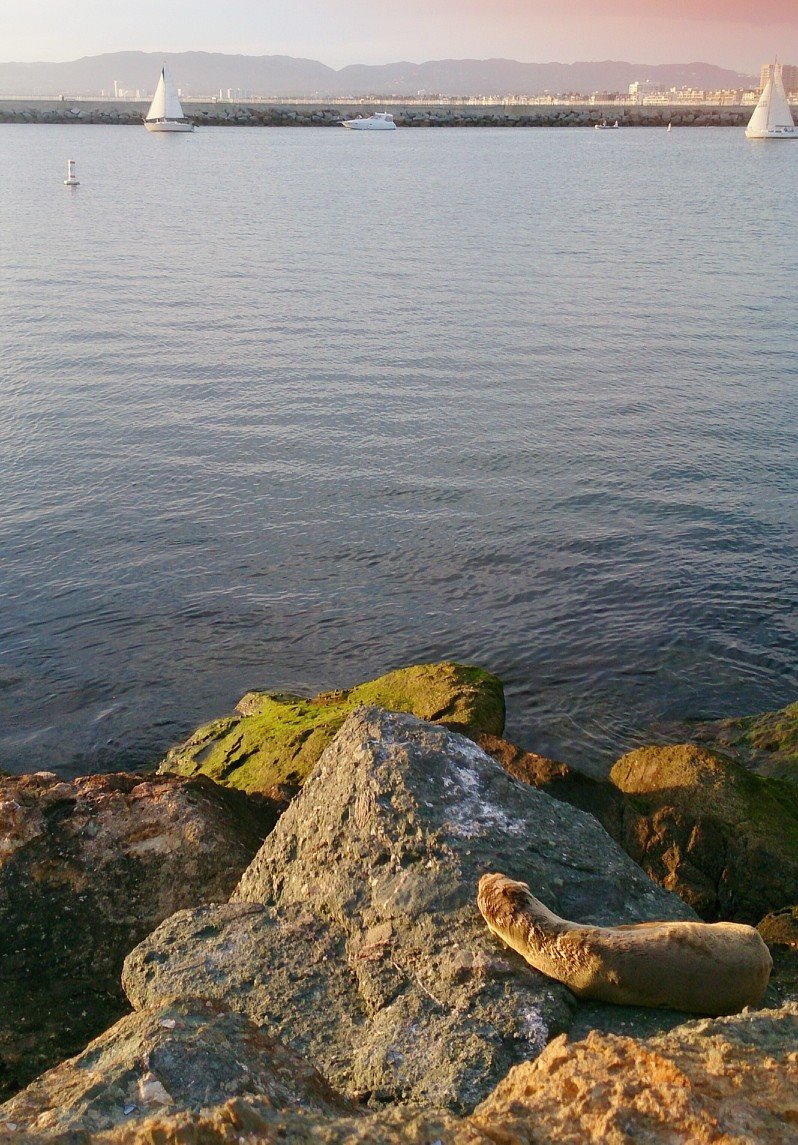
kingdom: Animalia
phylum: Chordata
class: Mammalia
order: Carnivora
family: Otariidae
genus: Zalophus
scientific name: Zalophus californianus
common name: California sea lion
